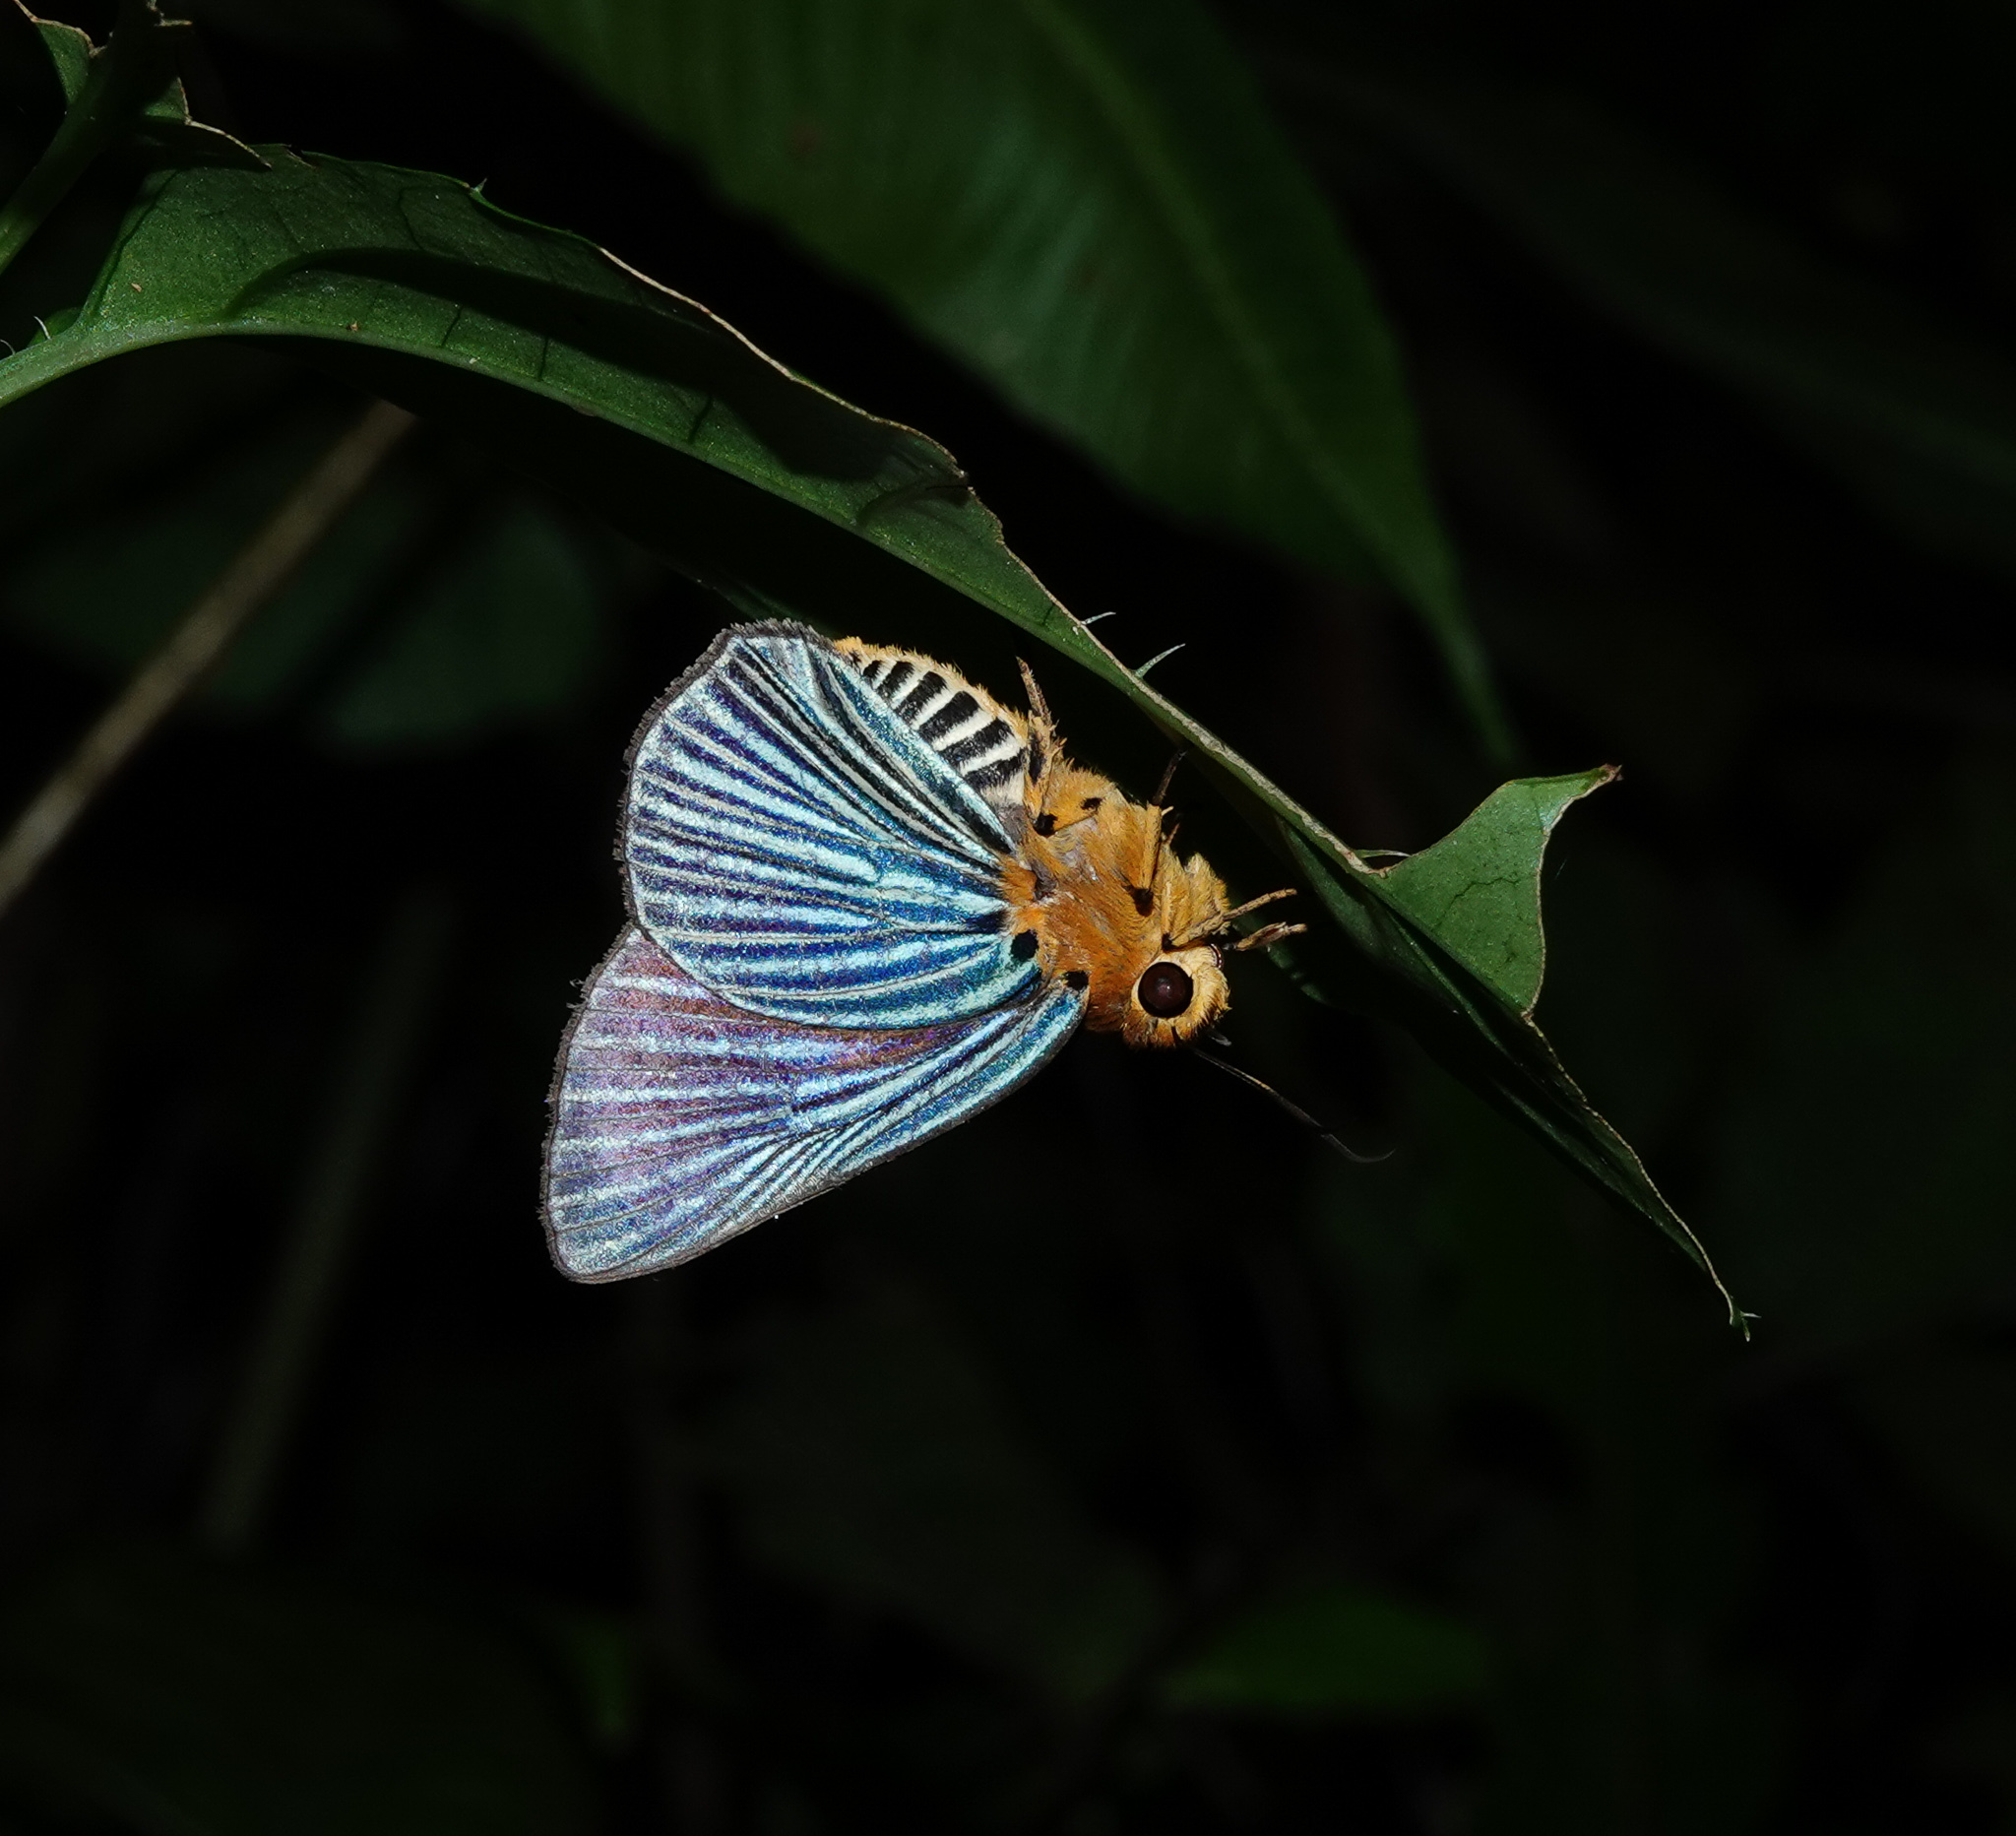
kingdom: Animalia
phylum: Arthropoda
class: Insecta
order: Lepidoptera
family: Hesperiidae
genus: Bibasis
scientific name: Bibasis amara
